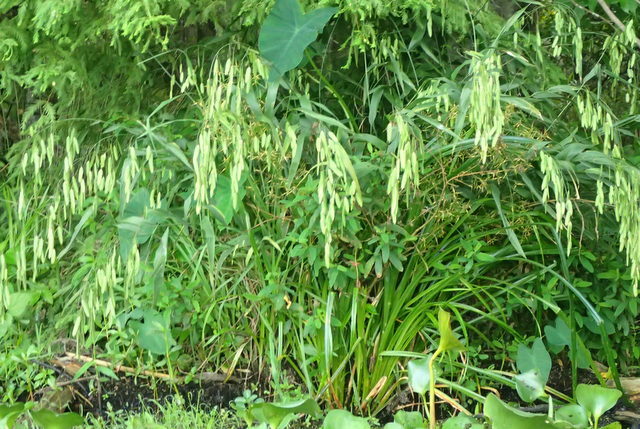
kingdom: Plantae
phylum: Tracheophyta
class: Liliopsida
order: Poales
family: Poaceae
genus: Chasmanthium
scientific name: Chasmanthium latifolium
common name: Broad-leaved chasmanthium
